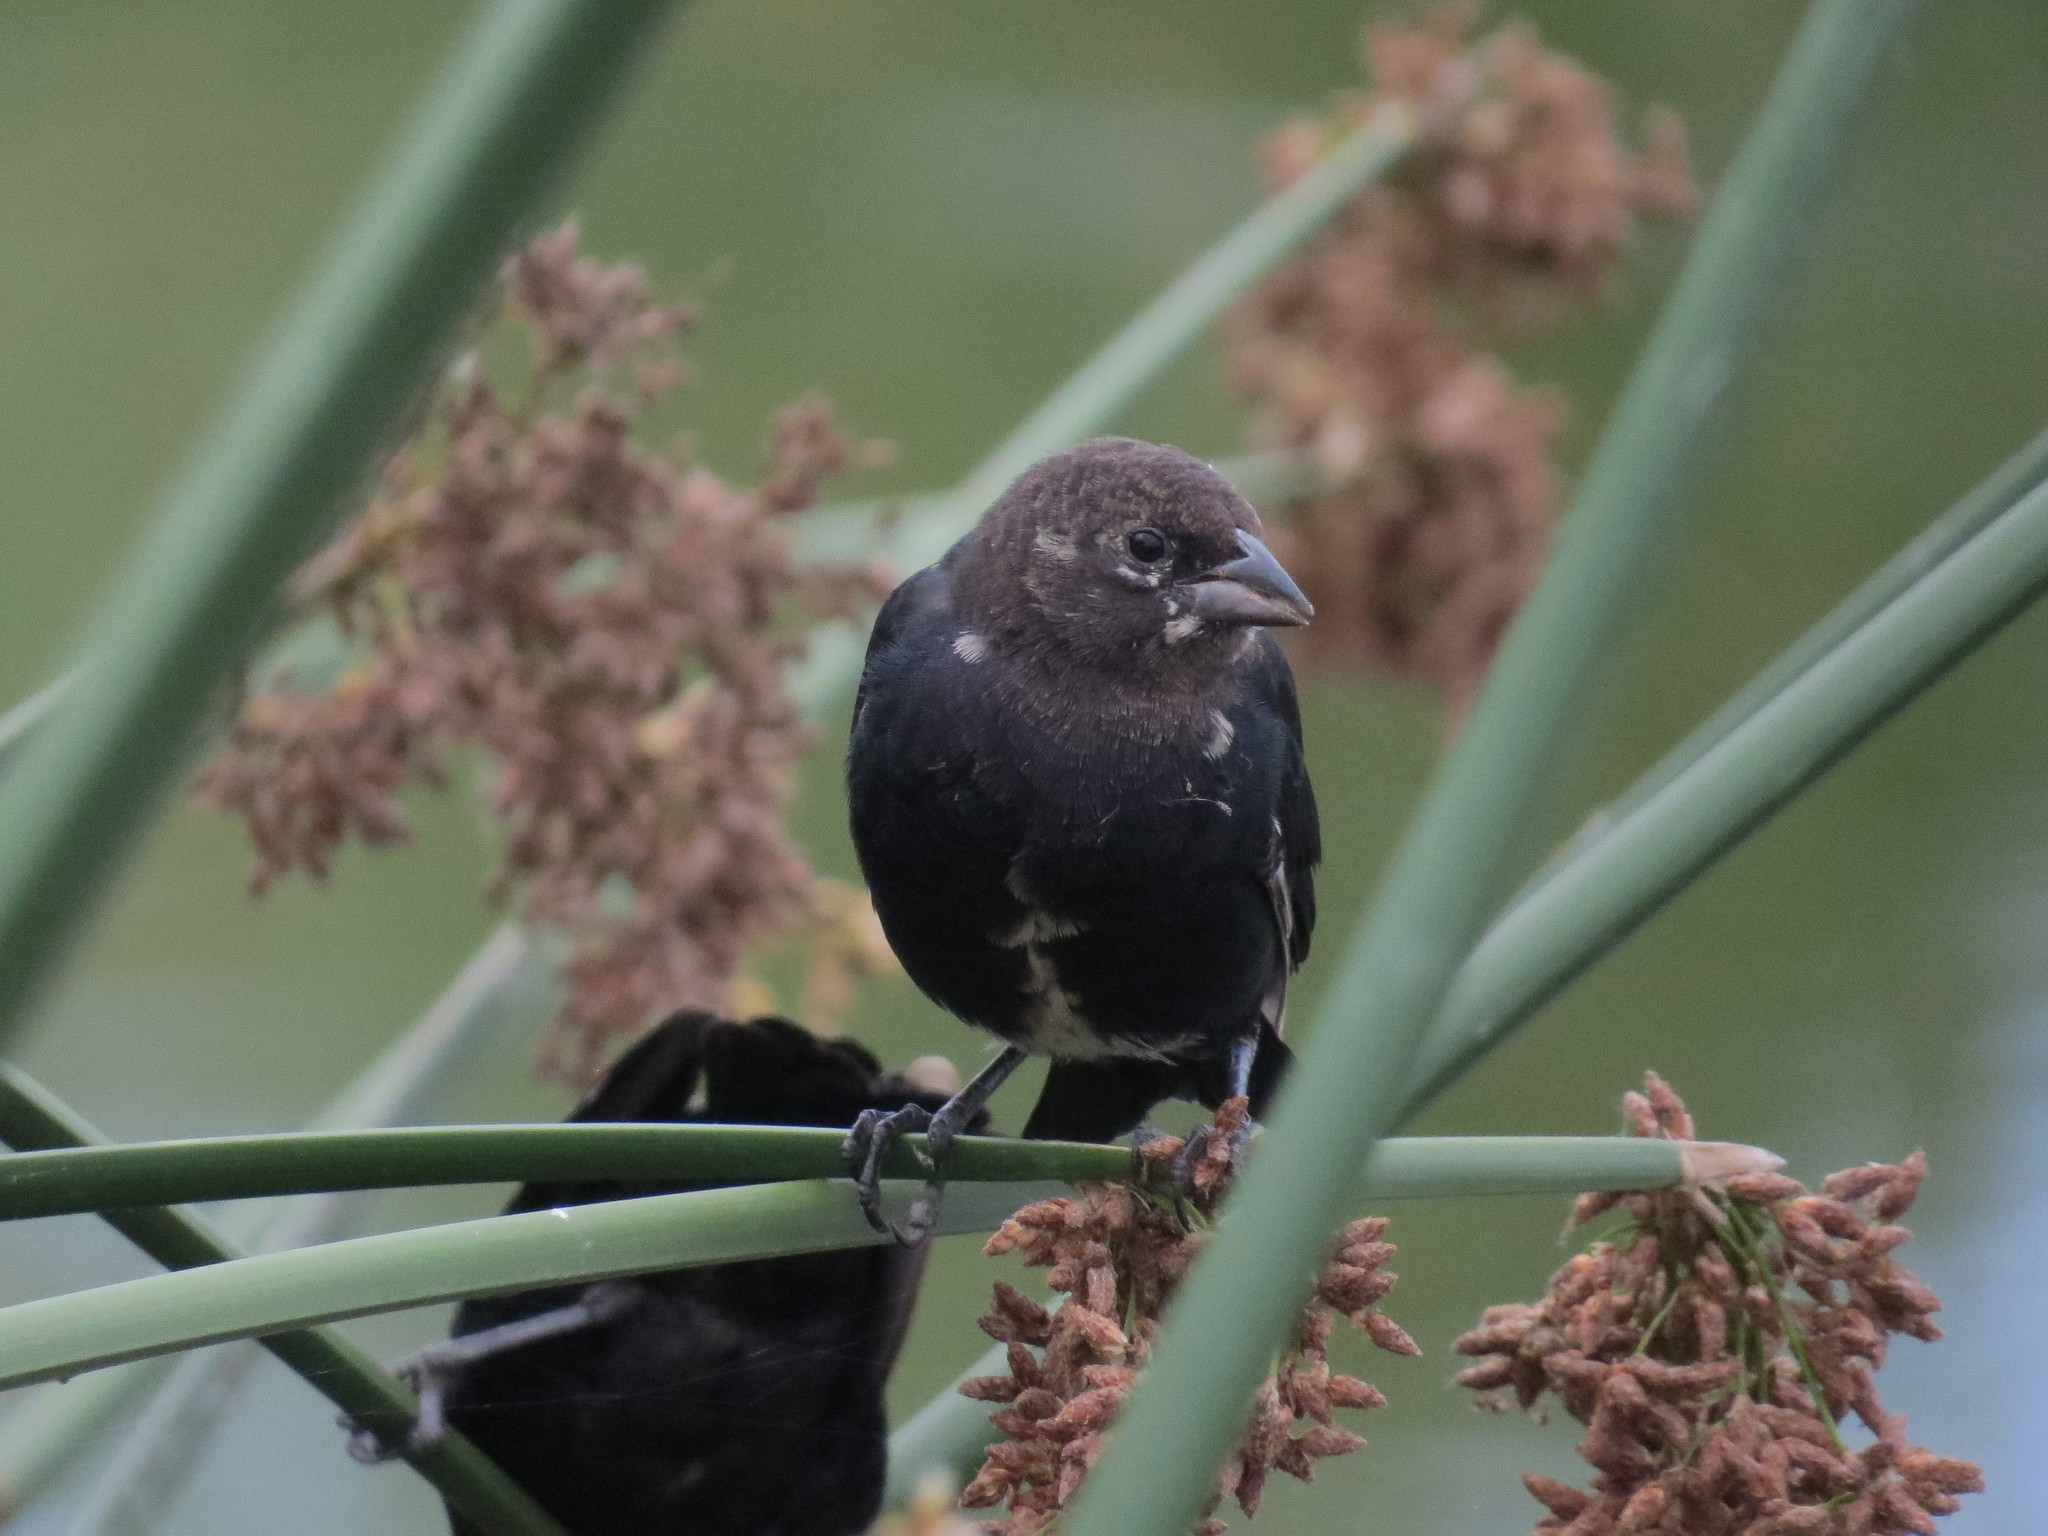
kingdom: Animalia
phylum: Chordata
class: Aves
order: Passeriformes
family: Icteridae
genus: Molothrus
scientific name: Molothrus ater
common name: Brown-headed cowbird
